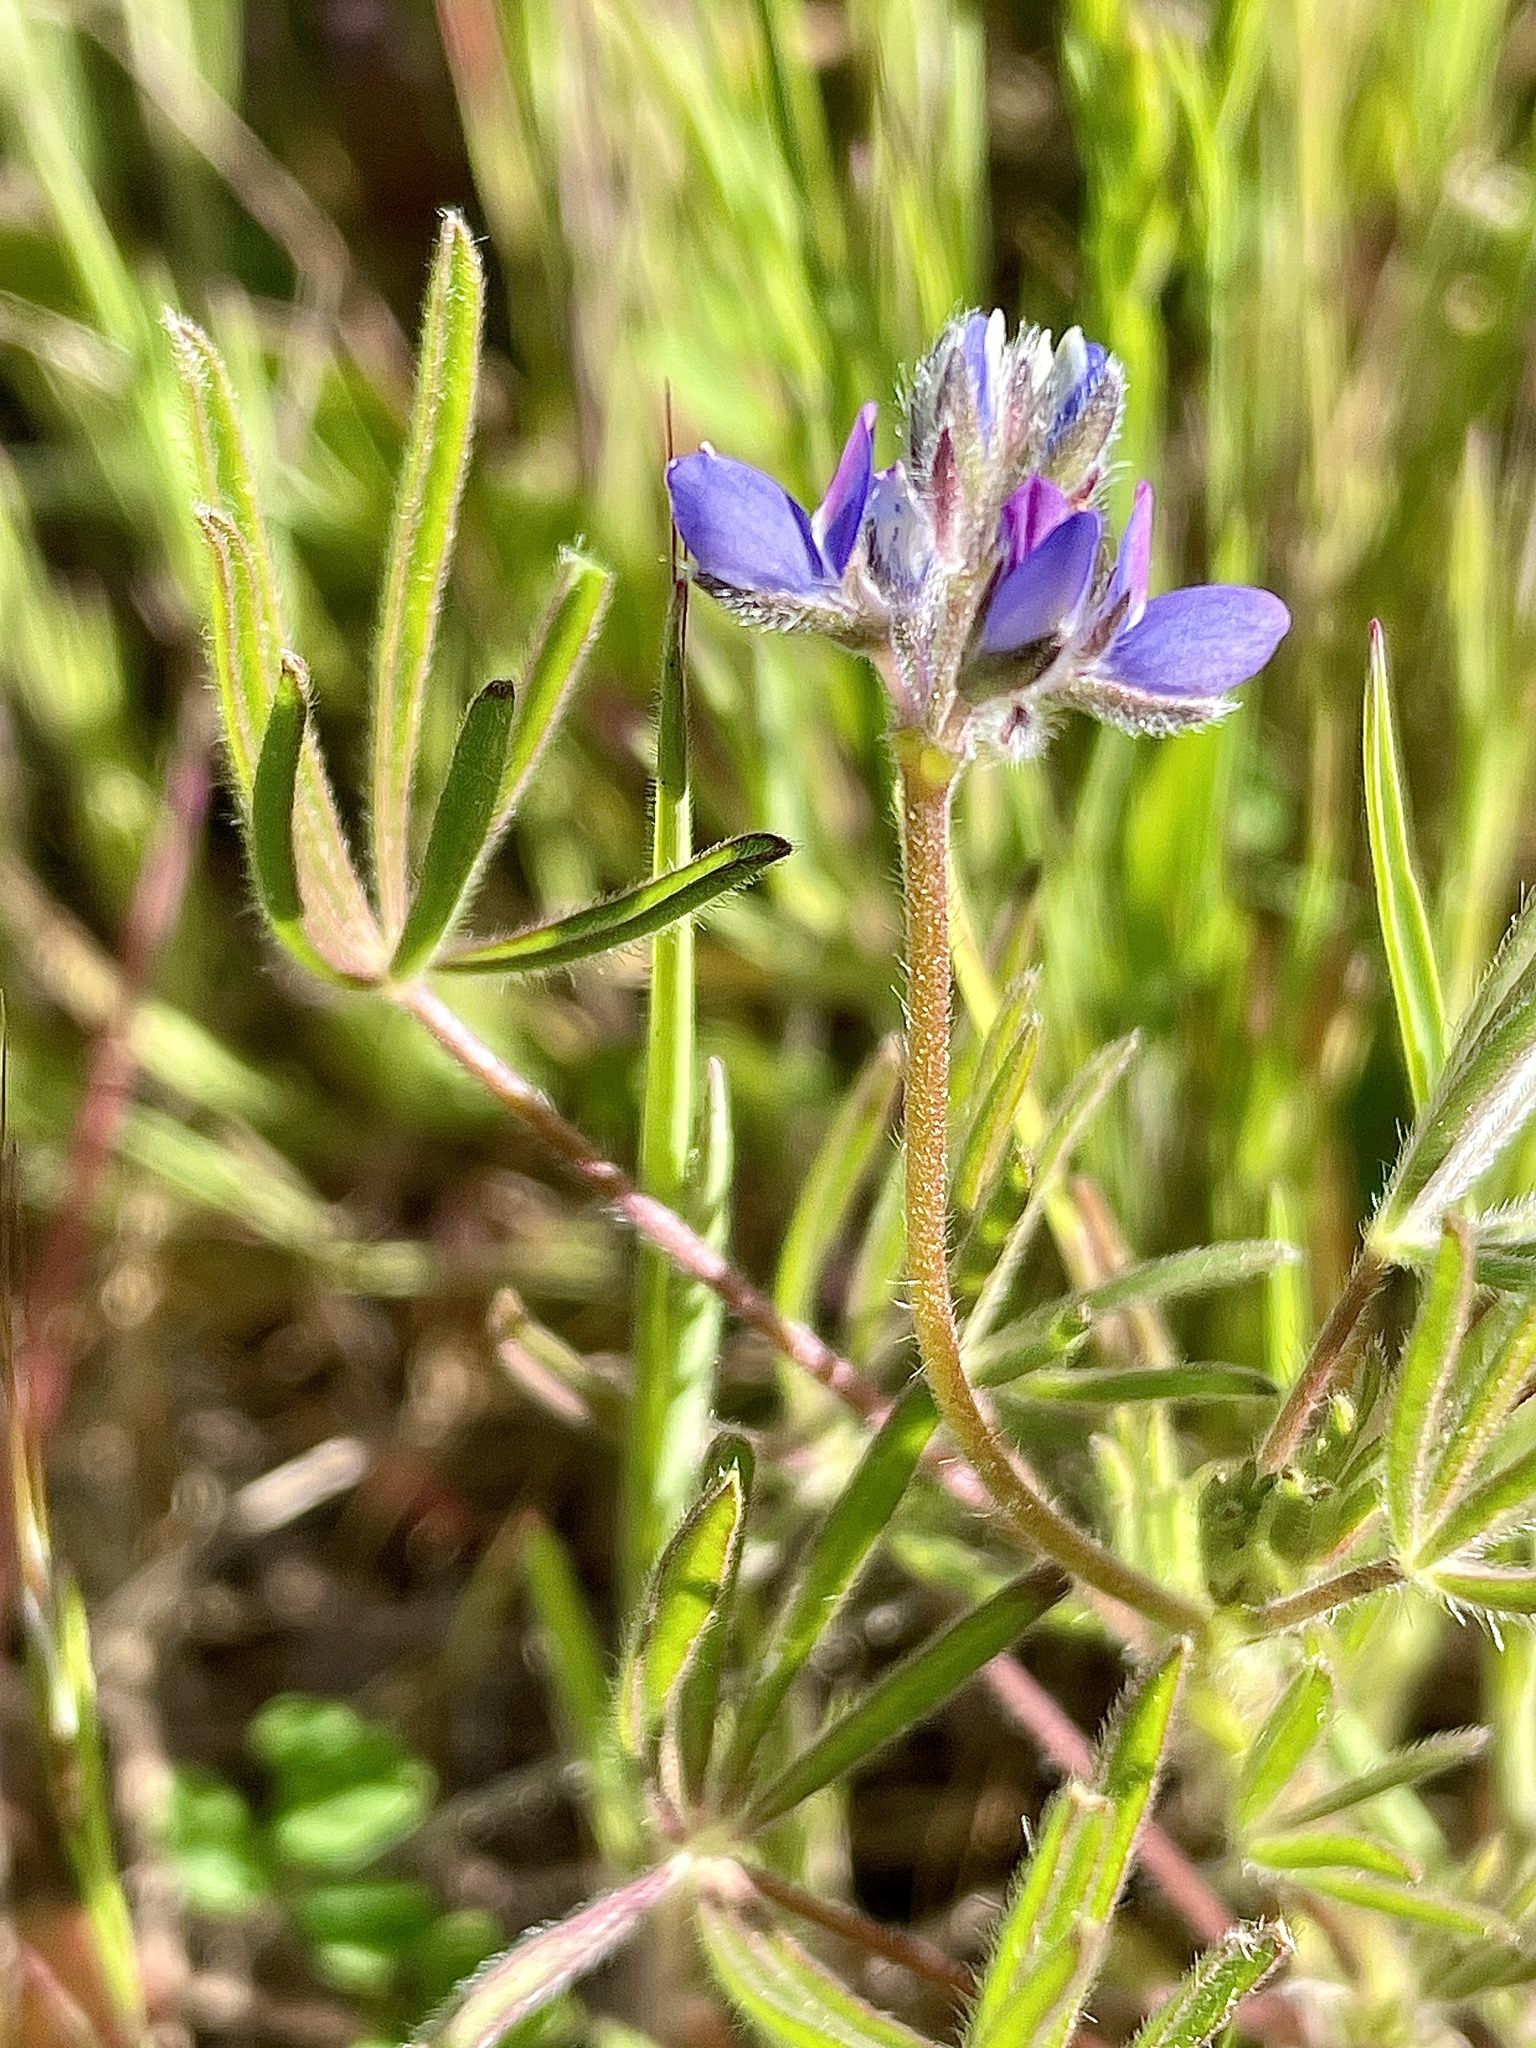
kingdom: Plantae
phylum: Tracheophyta
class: Magnoliopsida
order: Fabales
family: Fabaceae
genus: Lupinus
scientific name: Lupinus bicolor
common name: Miniature lupine
